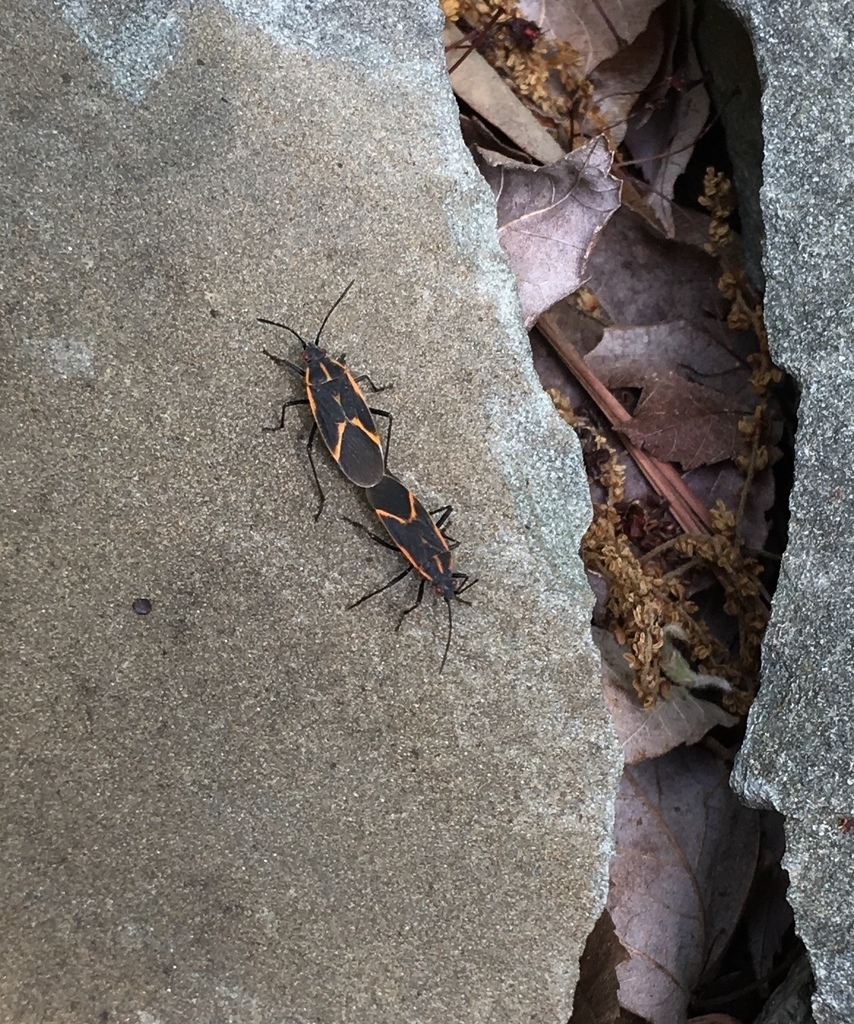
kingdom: Animalia
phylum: Arthropoda
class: Insecta
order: Hemiptera
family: Rhopalidae
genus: Boisea
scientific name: Boisea trivittata
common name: Boxelder bug
